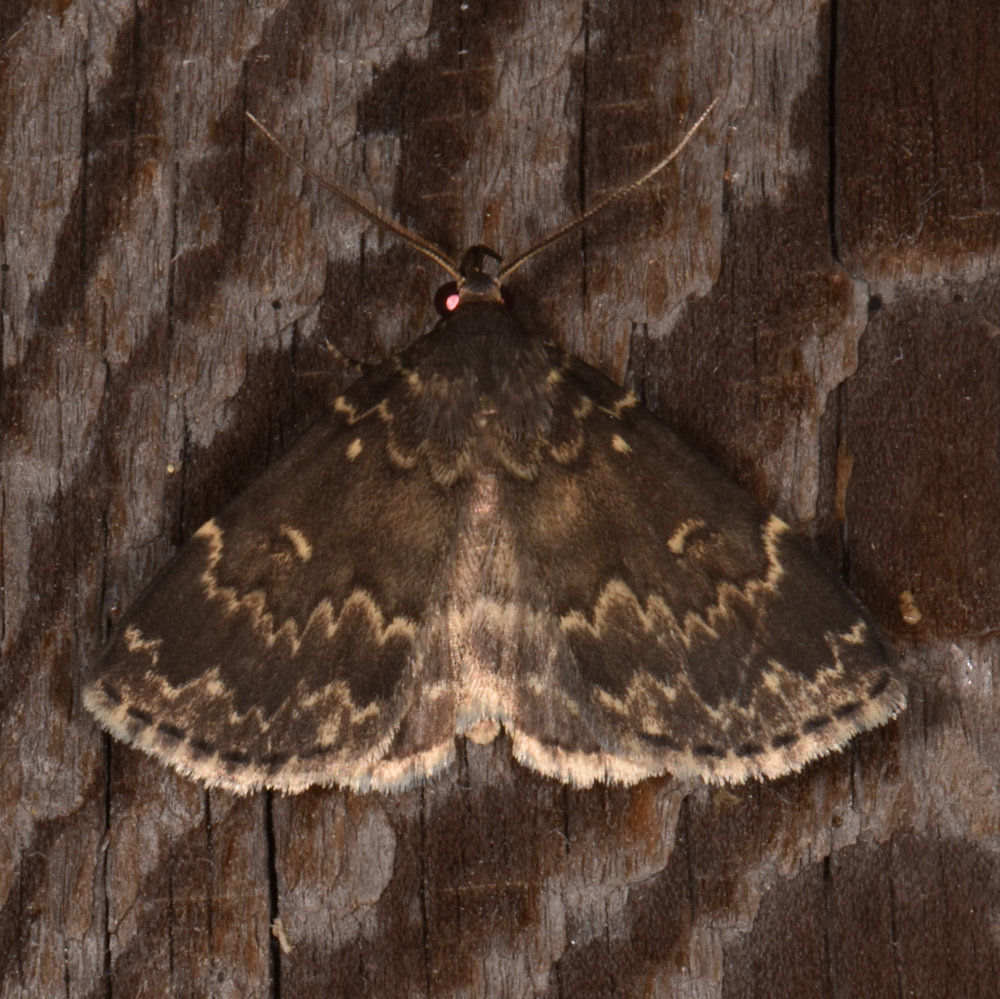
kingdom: Animalia
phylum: Arthropoda
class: Insecta
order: Lepidoptera
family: Erebidae
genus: Idia
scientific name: Idia scobialis
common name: Smoky idia moth
